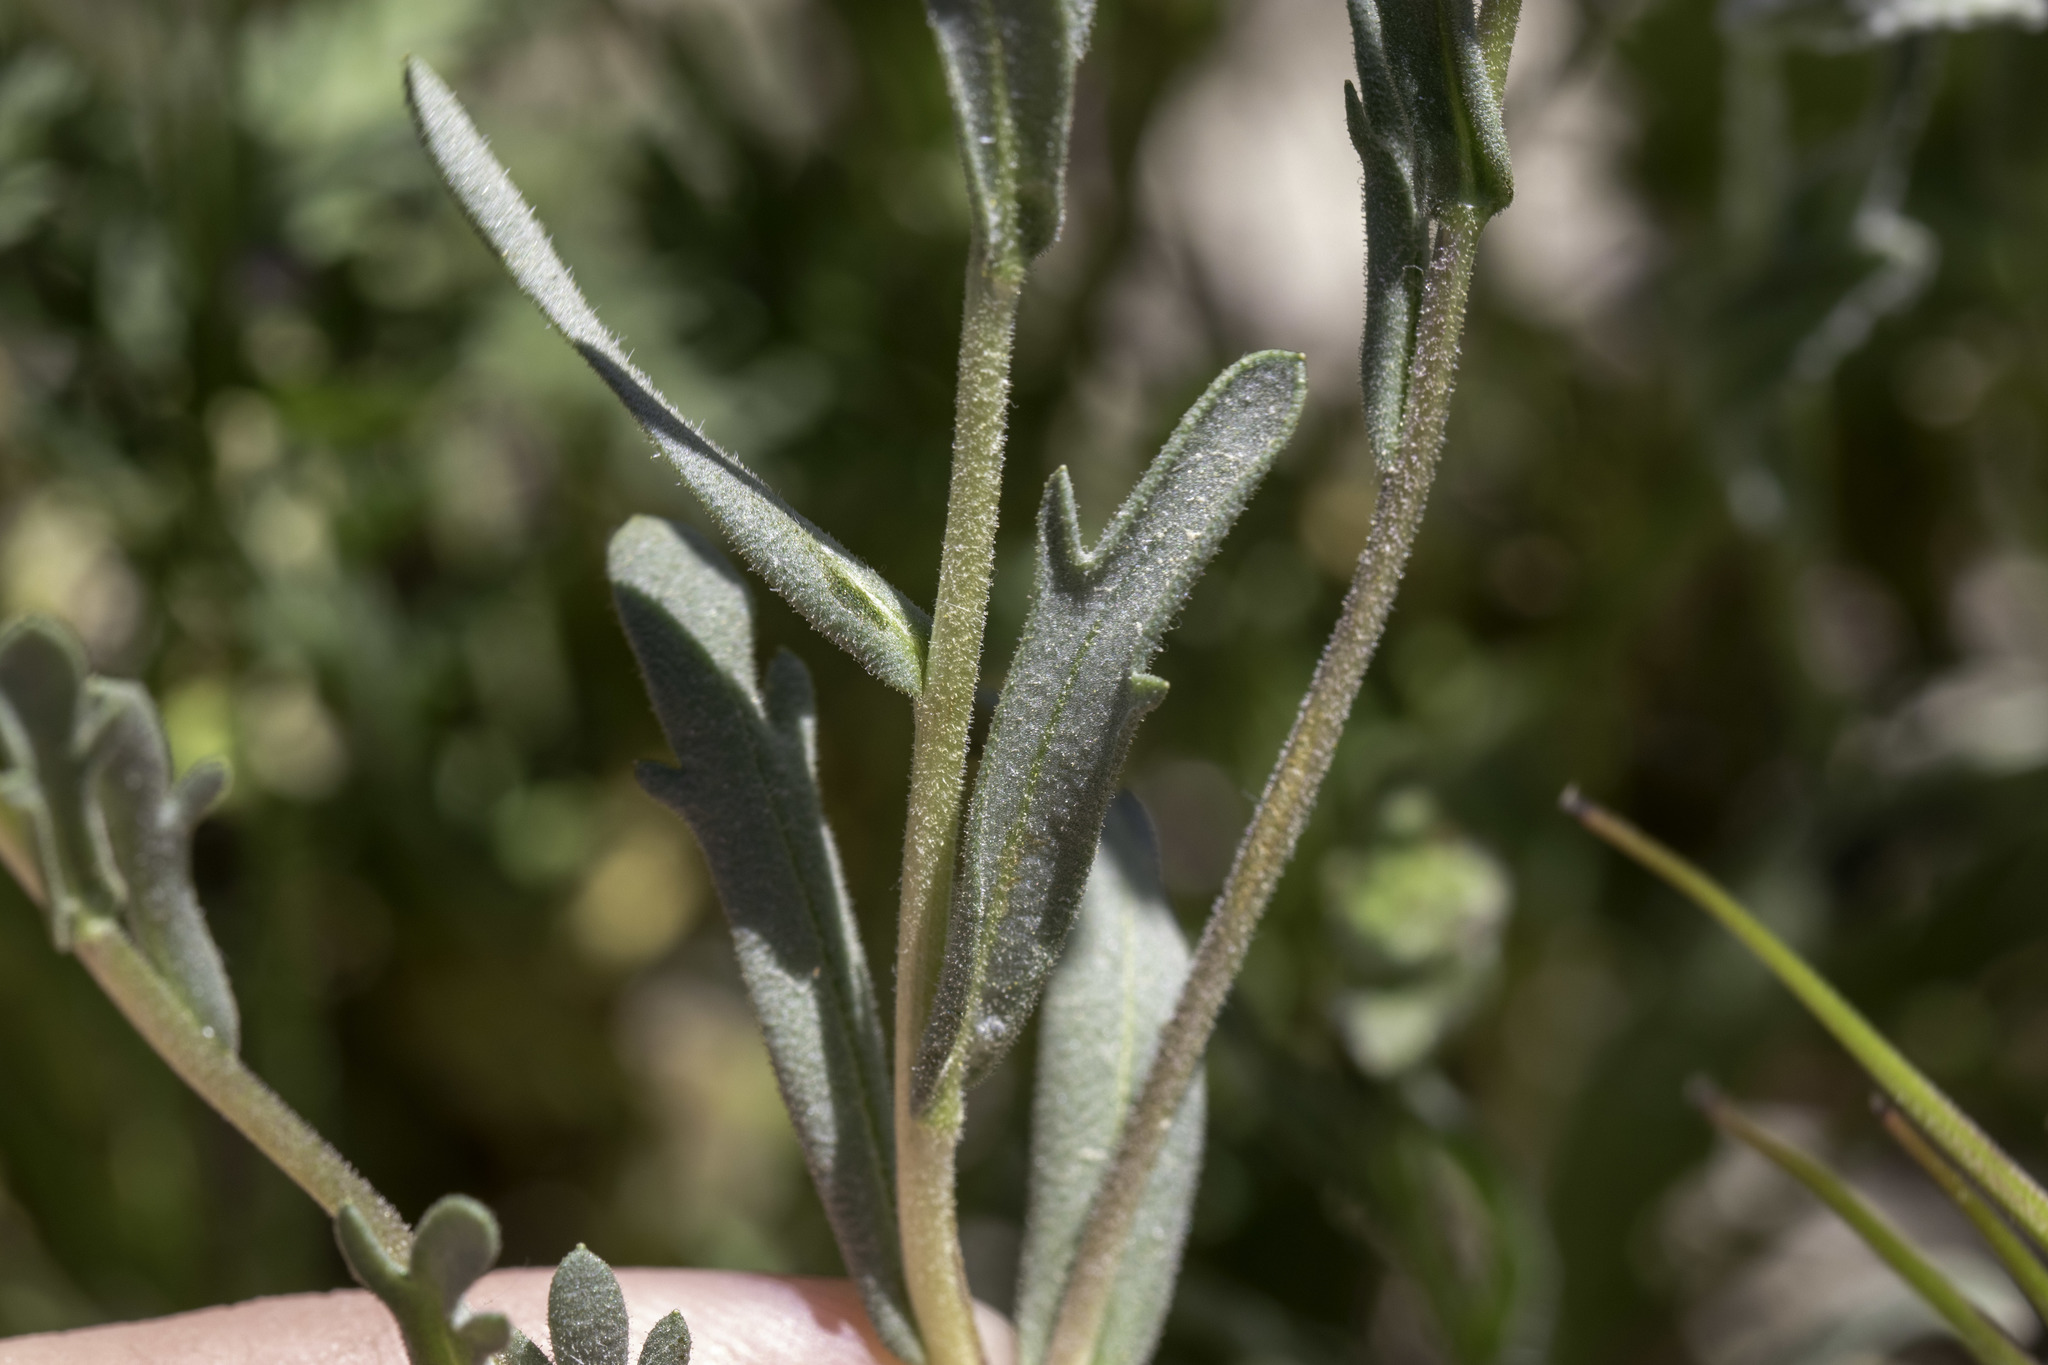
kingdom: Plantae
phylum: Tracheophyta
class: Magnoliopsida
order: Asterales
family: Asteraceae
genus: Layia
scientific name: Layia munzii
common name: Munz's tidy-tips
